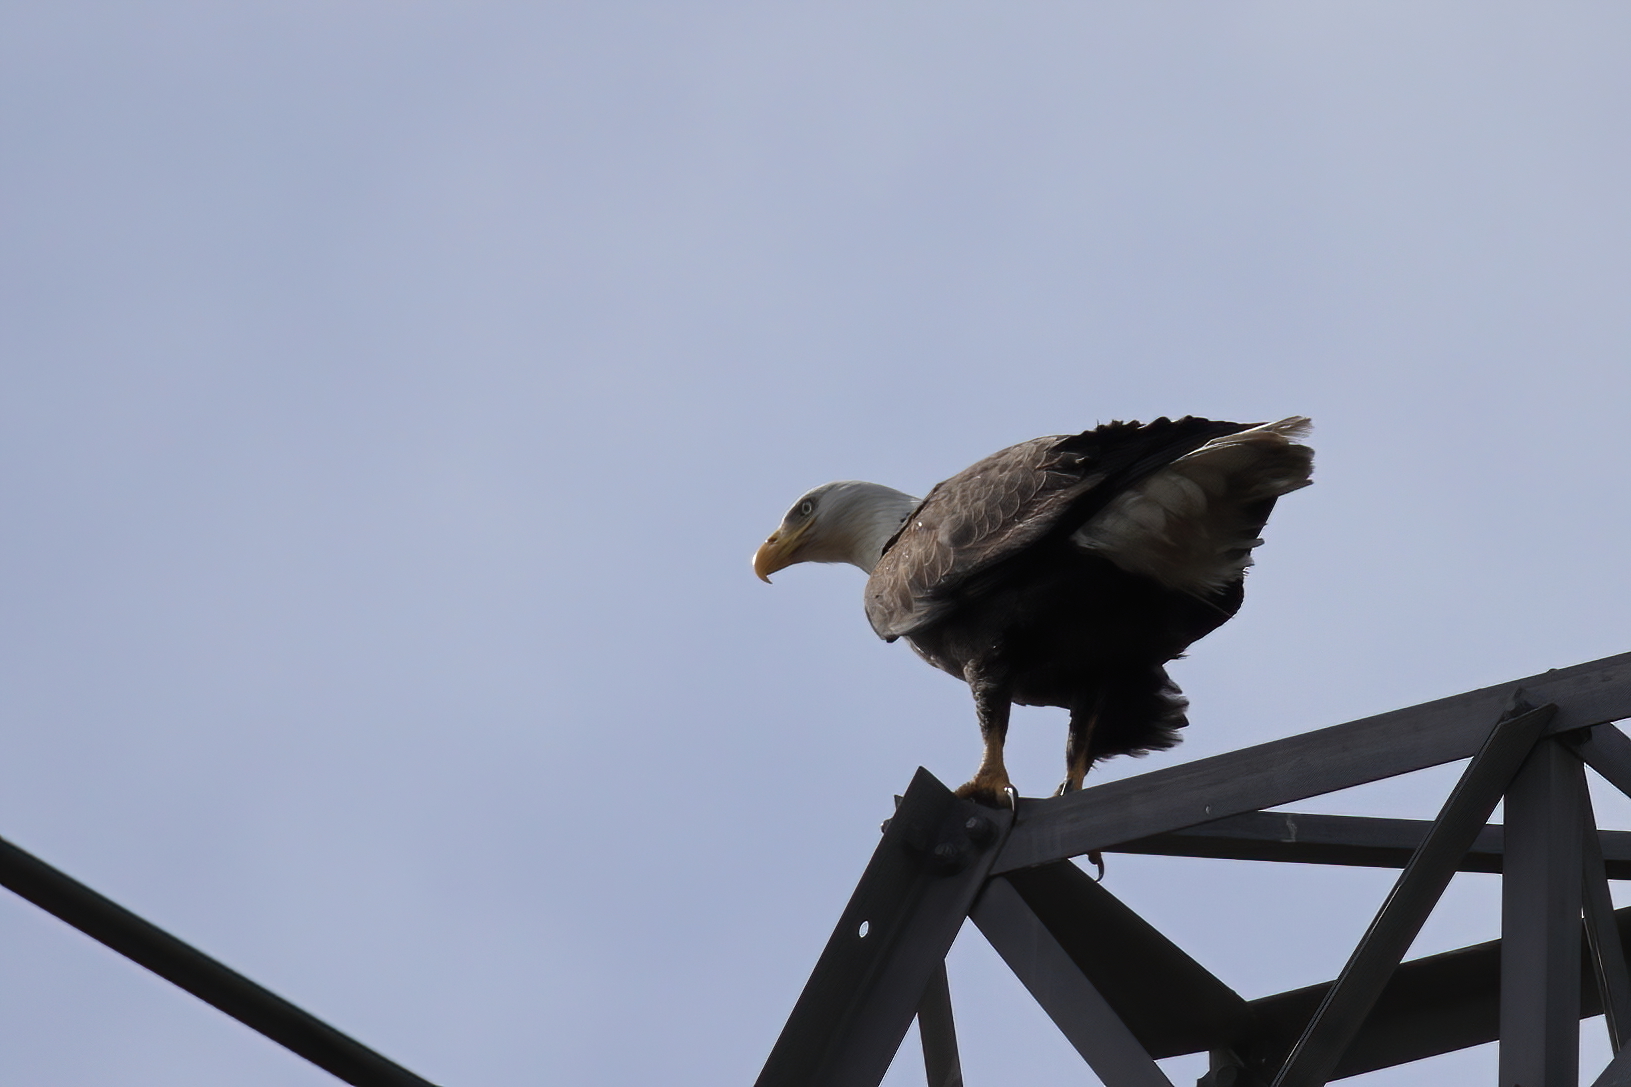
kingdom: Animalia
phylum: Chordata
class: Aves
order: Accipitriformes
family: Accipitridae
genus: Haliaeetus
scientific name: Haliaeetus leucocephalus
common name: Bald eagle
